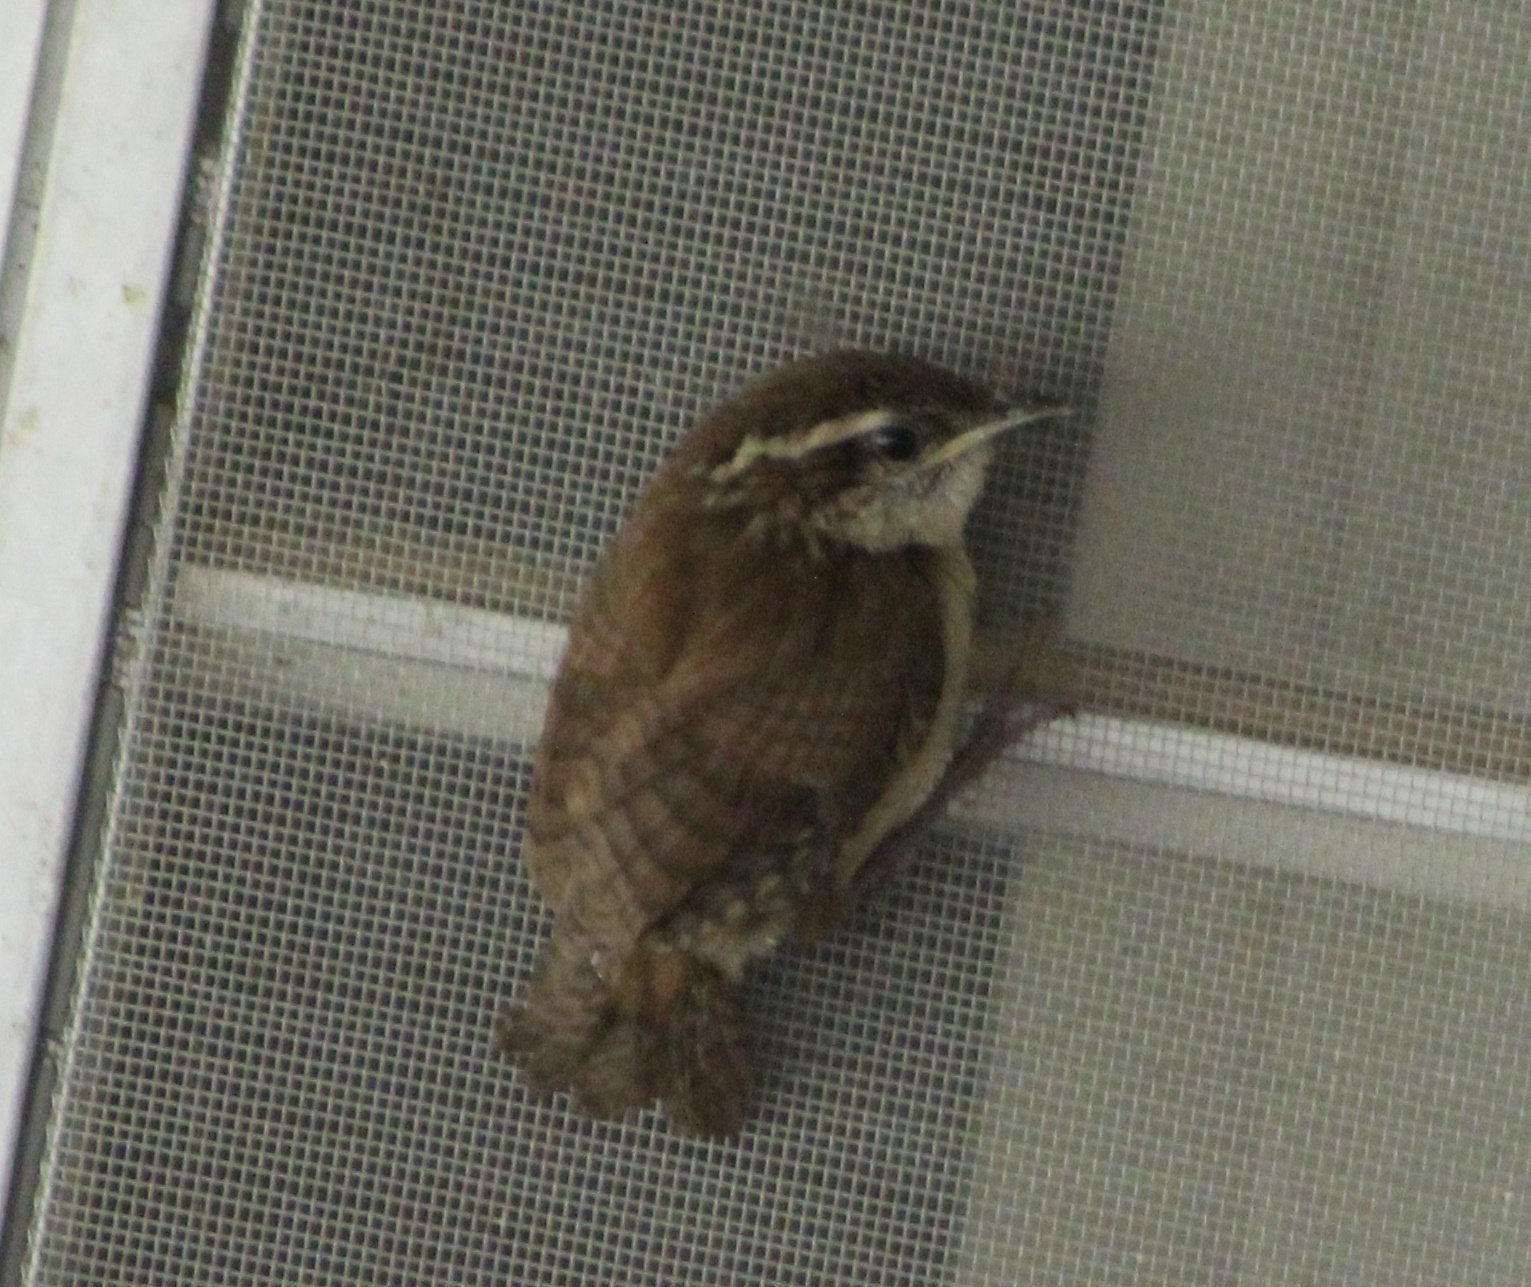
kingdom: Animalia
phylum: Chordata
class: Aves
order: Passeriformes
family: Troglodytidae
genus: Thryothorus
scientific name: Thryothorus ludovicianus
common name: Carolina wren
